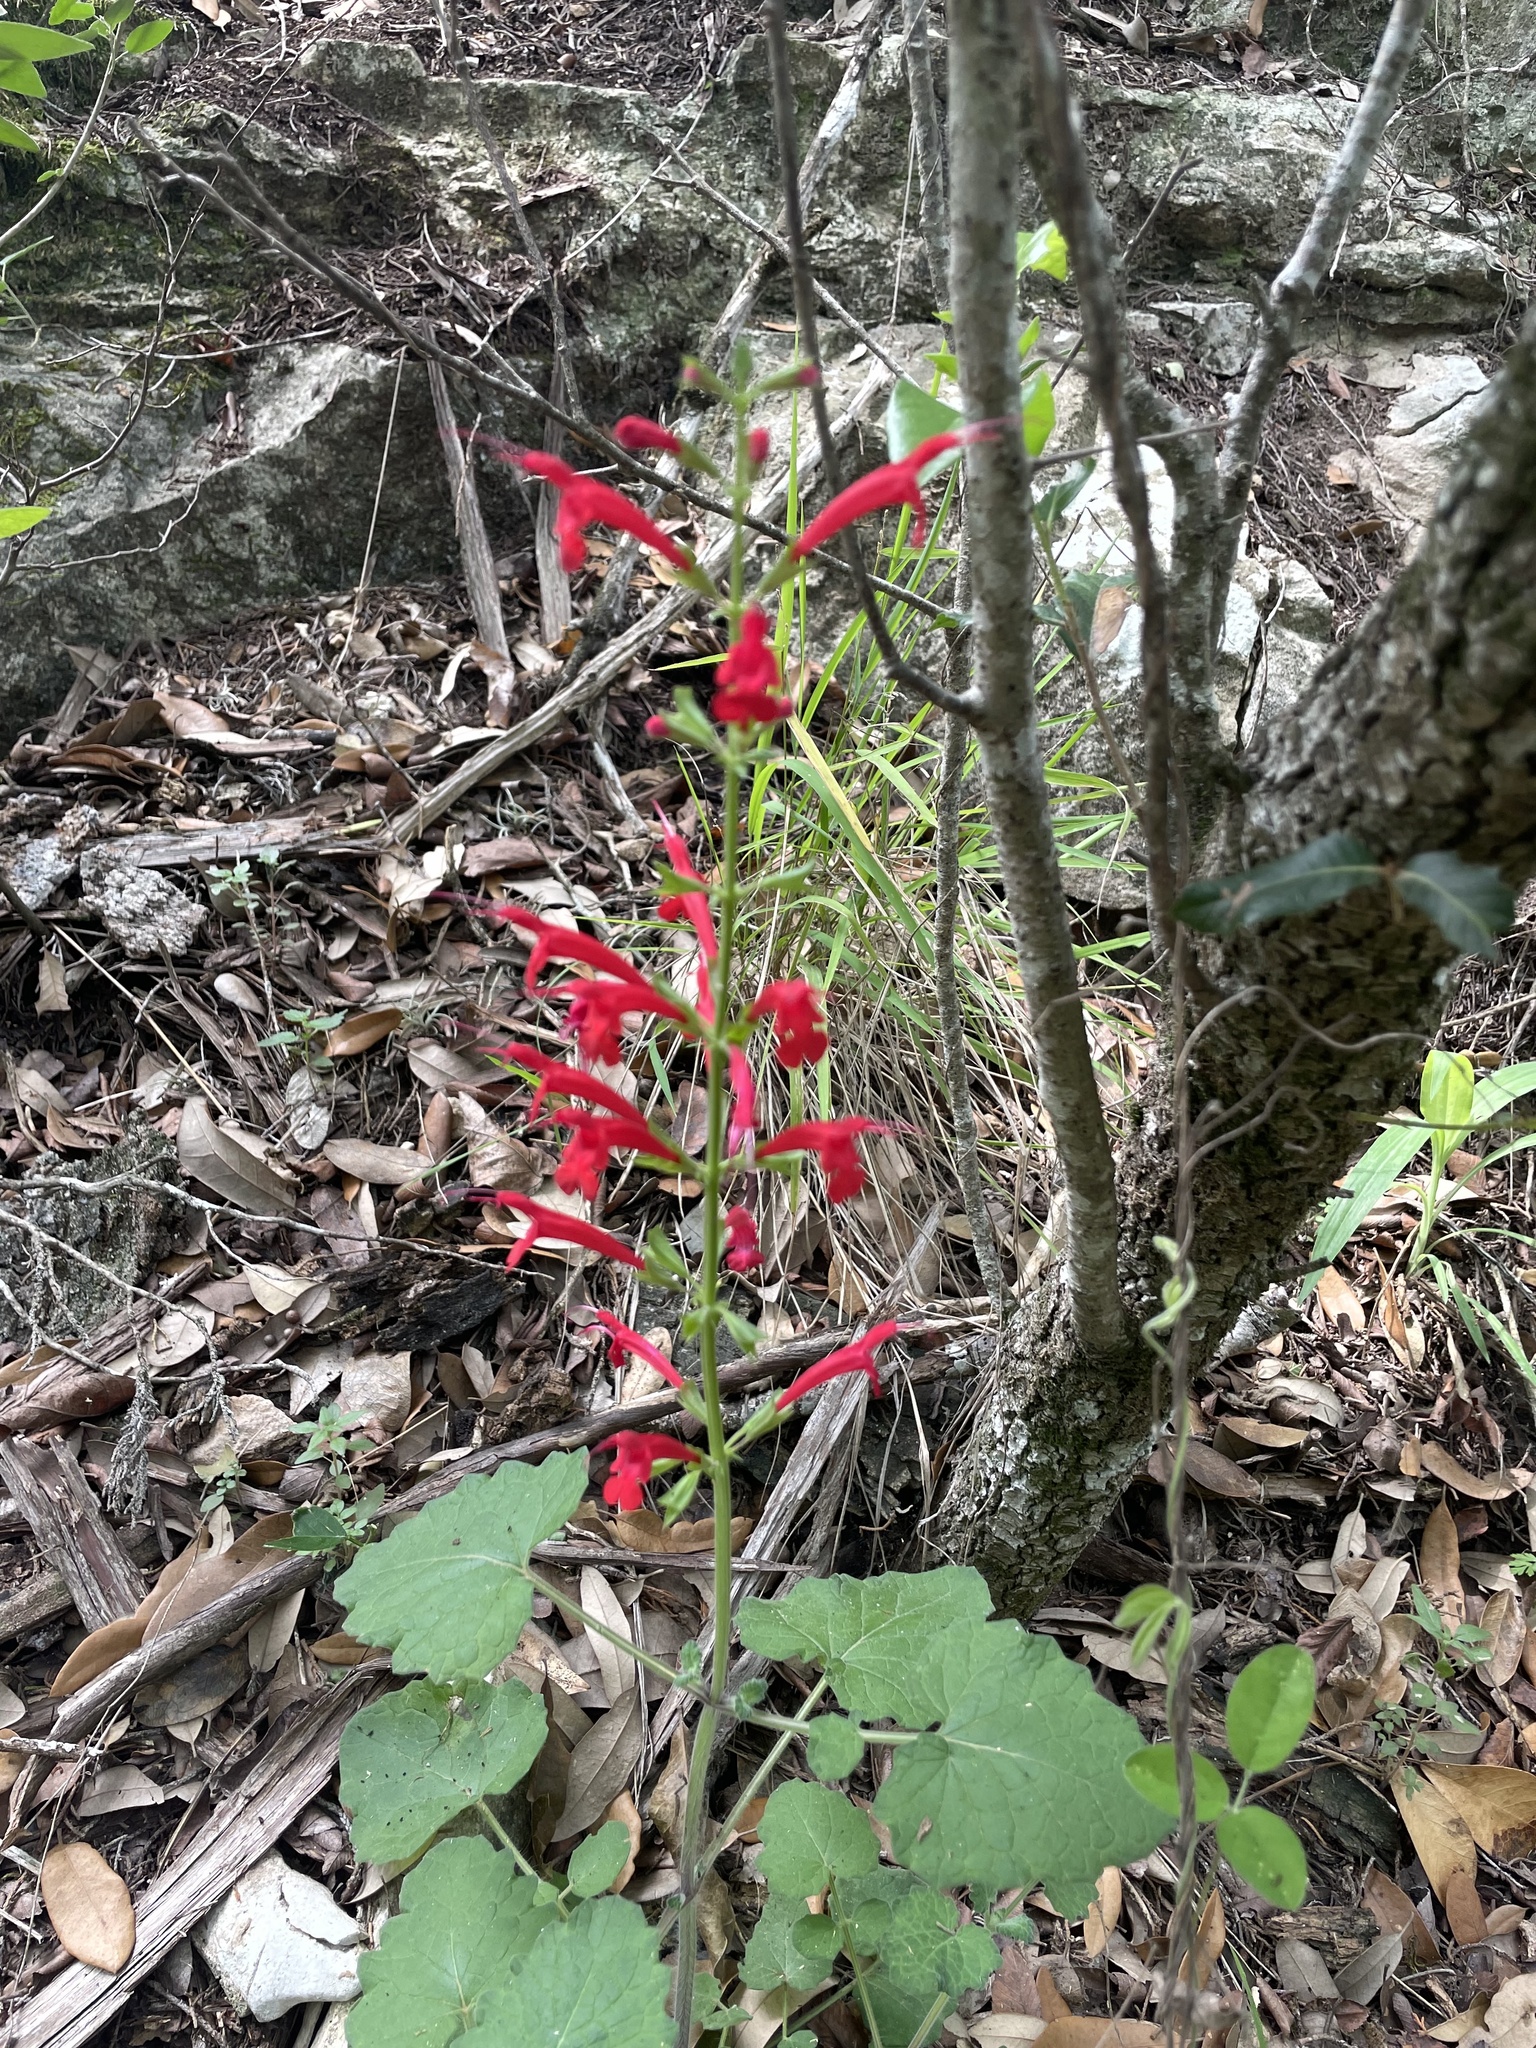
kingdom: Plantae
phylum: Tracheophyta
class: Magnoliopsida
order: Lamiales
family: Lamiaceae
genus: Salvia
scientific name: Salvia roemeriana
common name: Cedar sage
